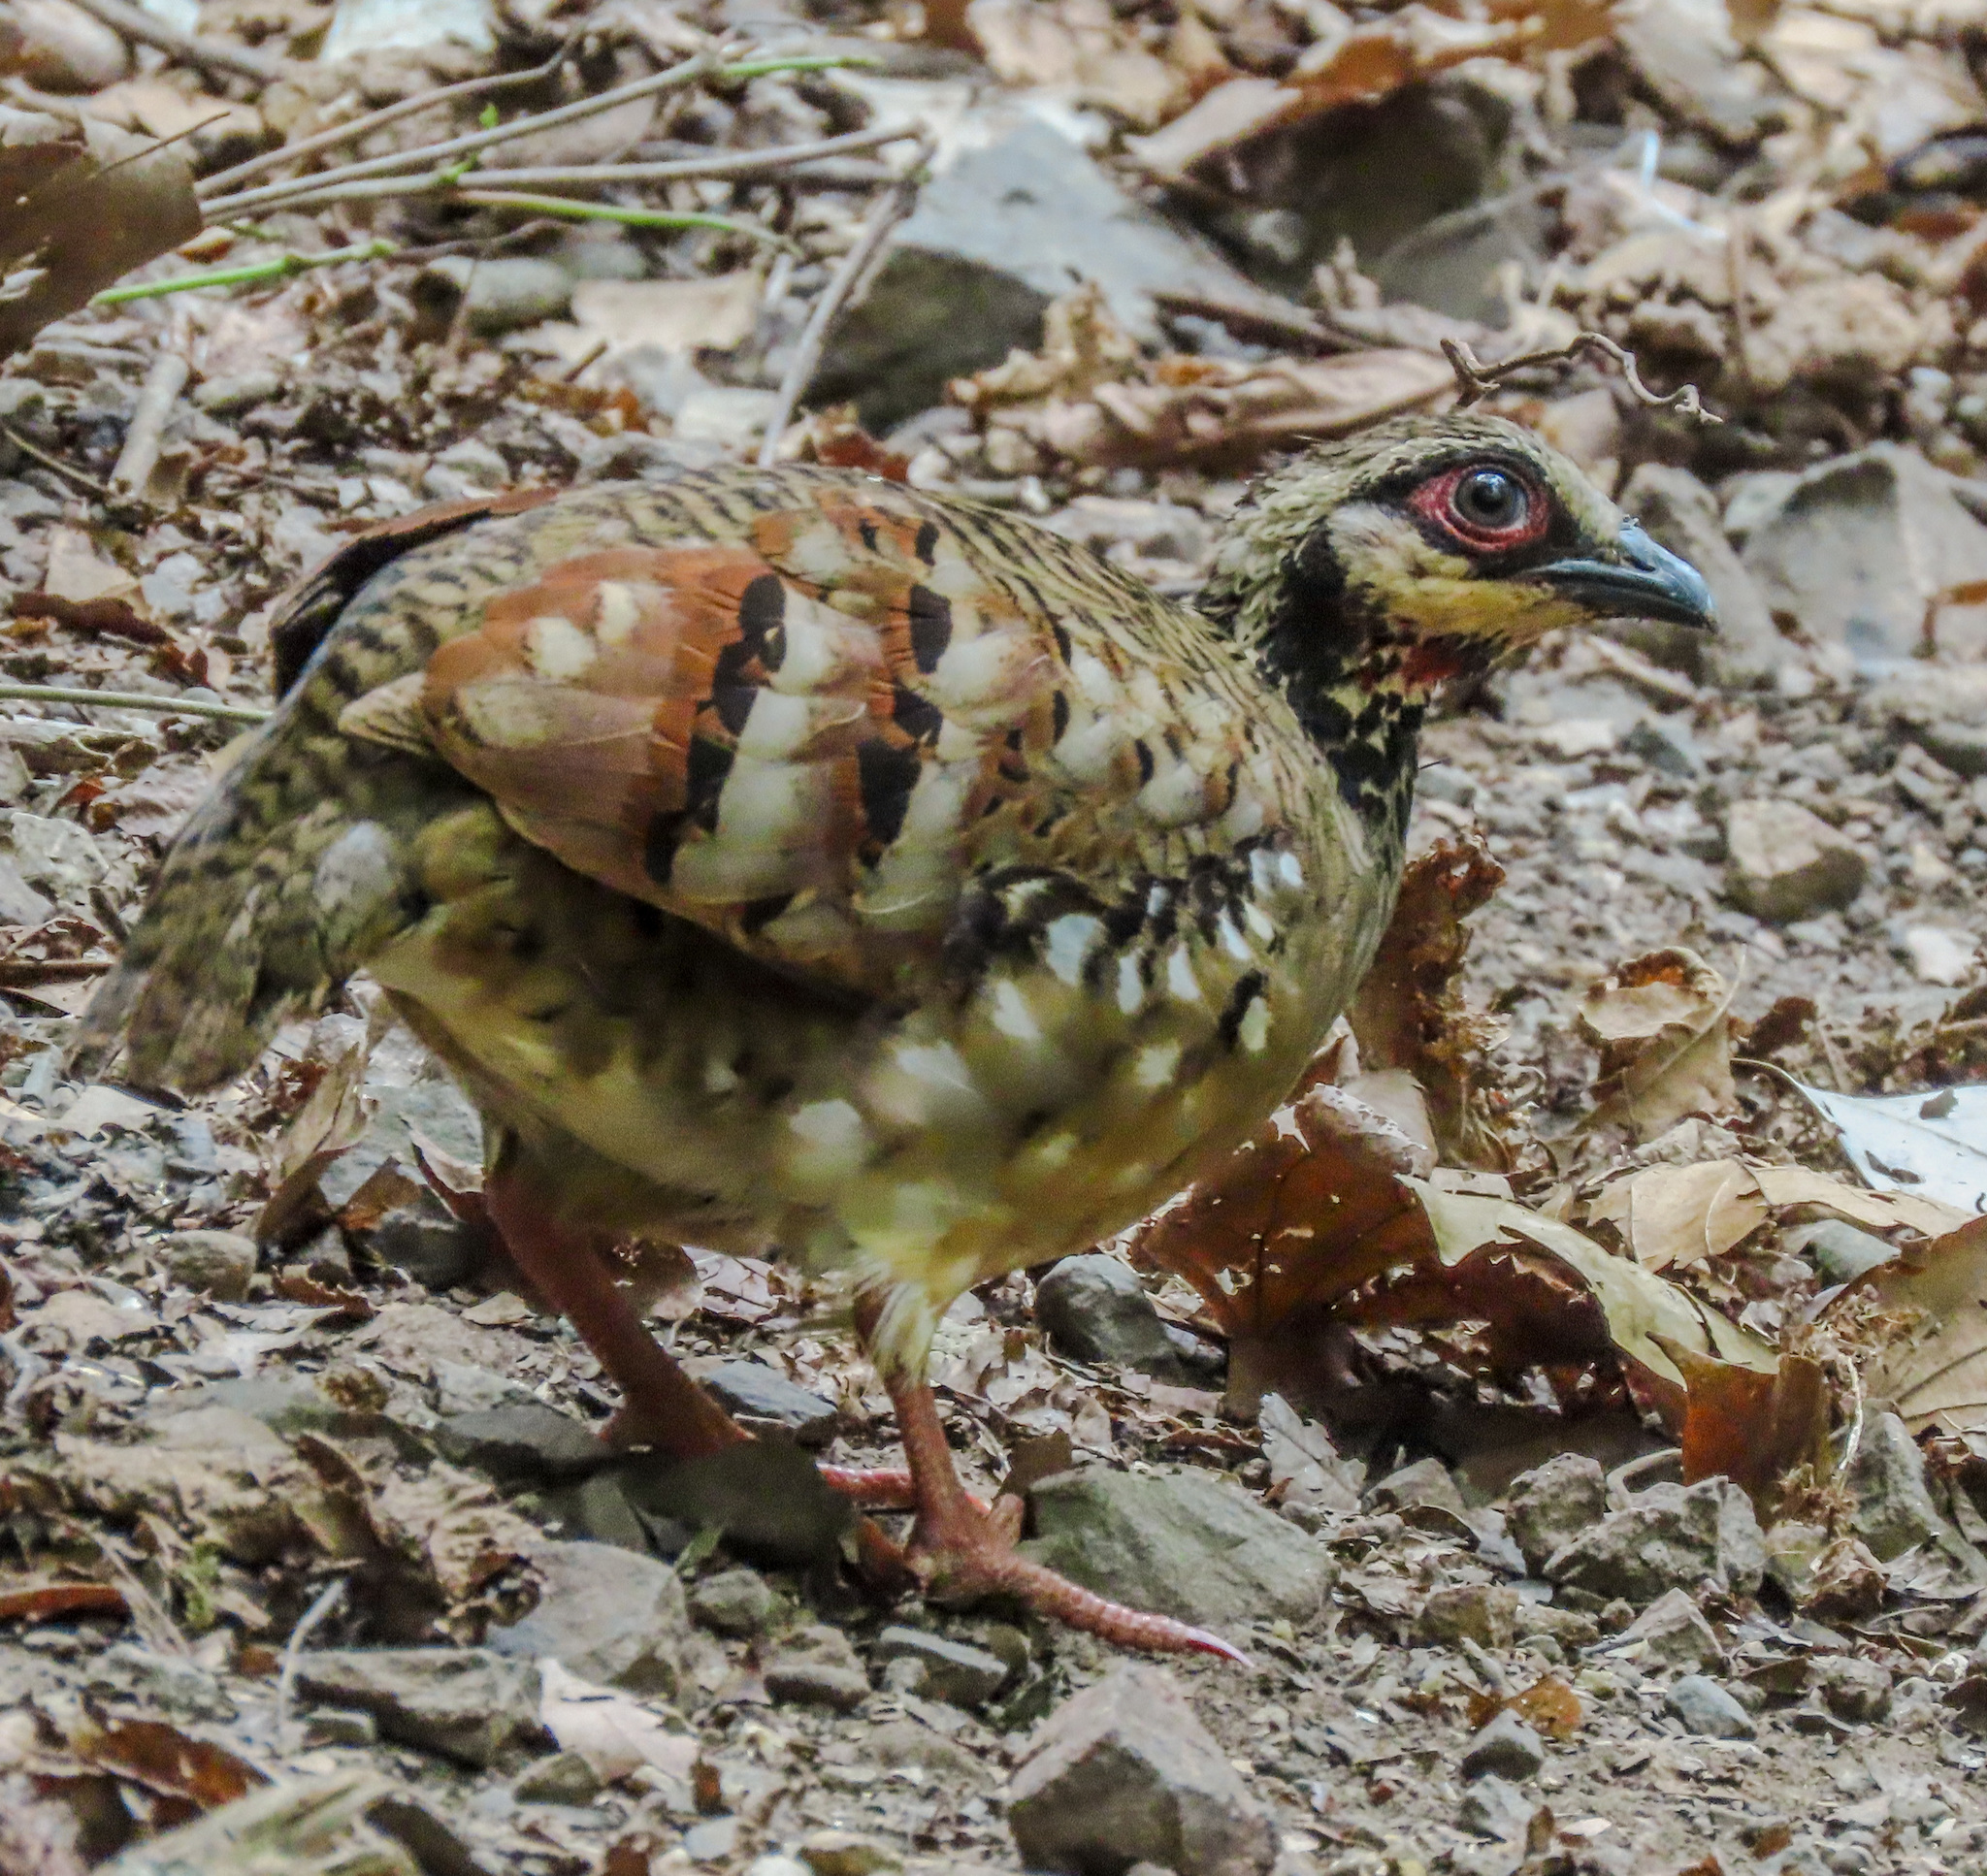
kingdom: Animalia
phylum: Chordata
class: Aves
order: Galliformes
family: Phasianidae
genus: Arborophila
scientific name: Arborophila brunneopectus
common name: Bar-backed partridge
